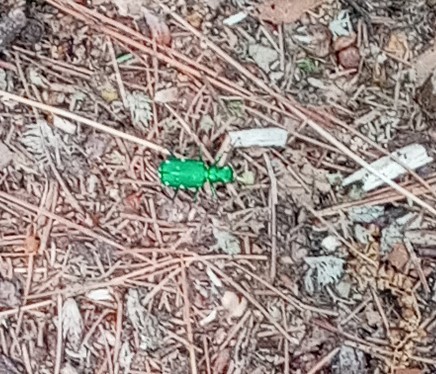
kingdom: Animalia
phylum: Arthropoda
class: Insecta
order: Coleoptera
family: Carabidae
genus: Cicindela
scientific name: Cicindela sexguttata
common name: Six-spotted tiger beetle
